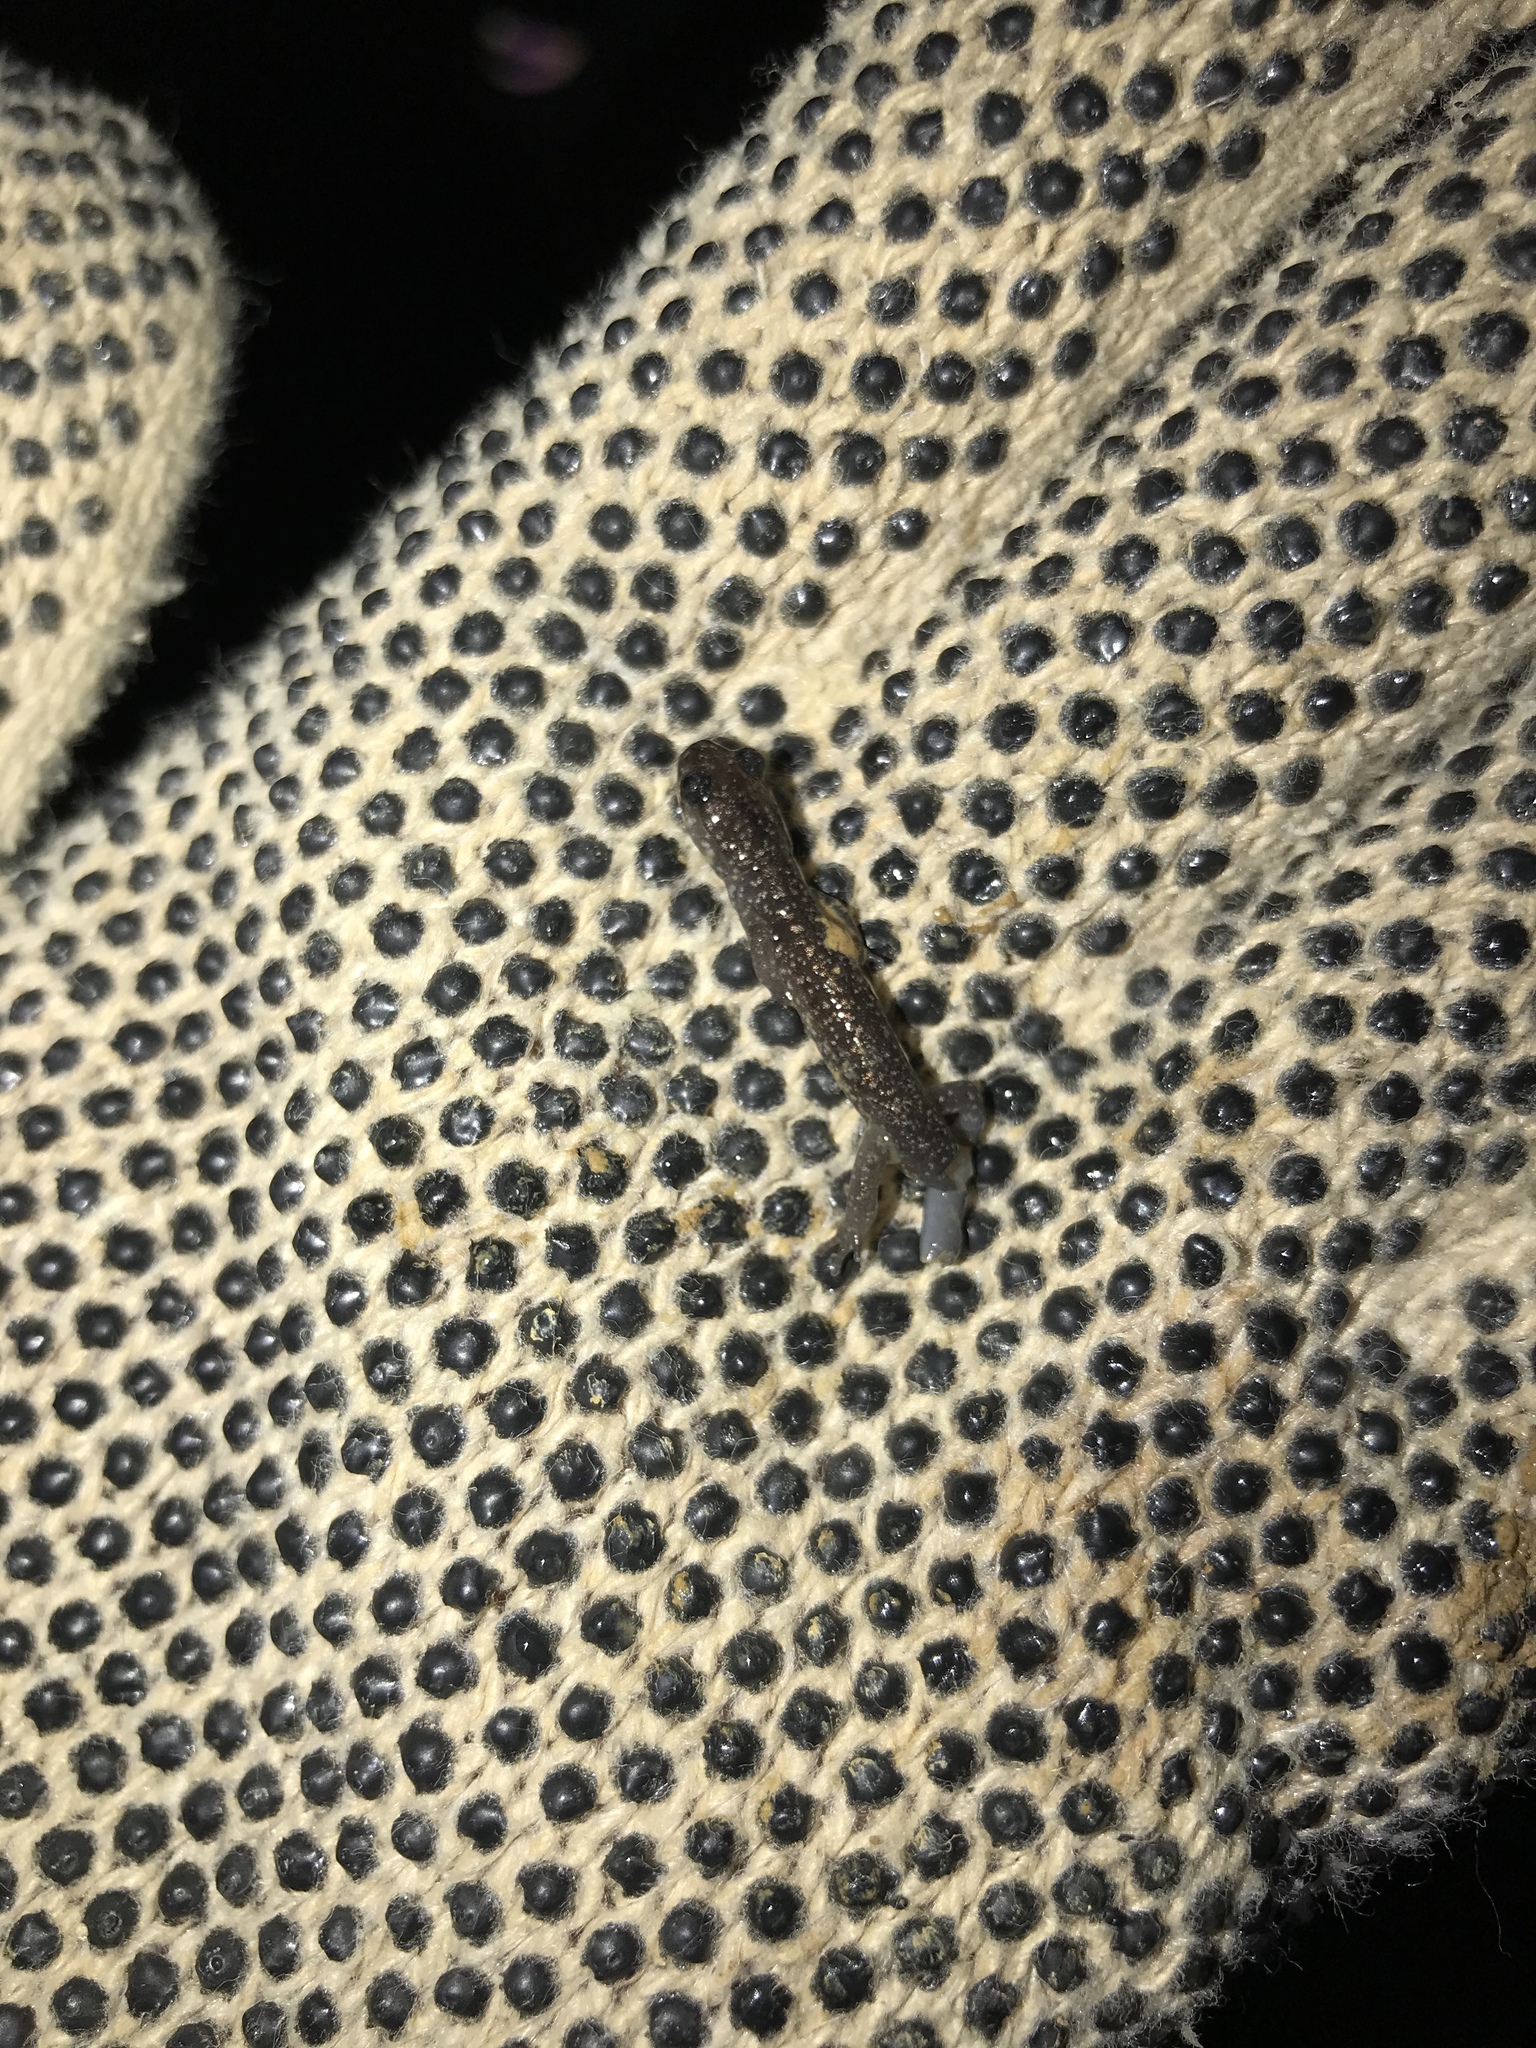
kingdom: Animalia
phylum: Chordata
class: Amphibia
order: Caudata
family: Plethodontidae
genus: Plethodon
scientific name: Plethodon glutinosus
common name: Northern slimy salamander
